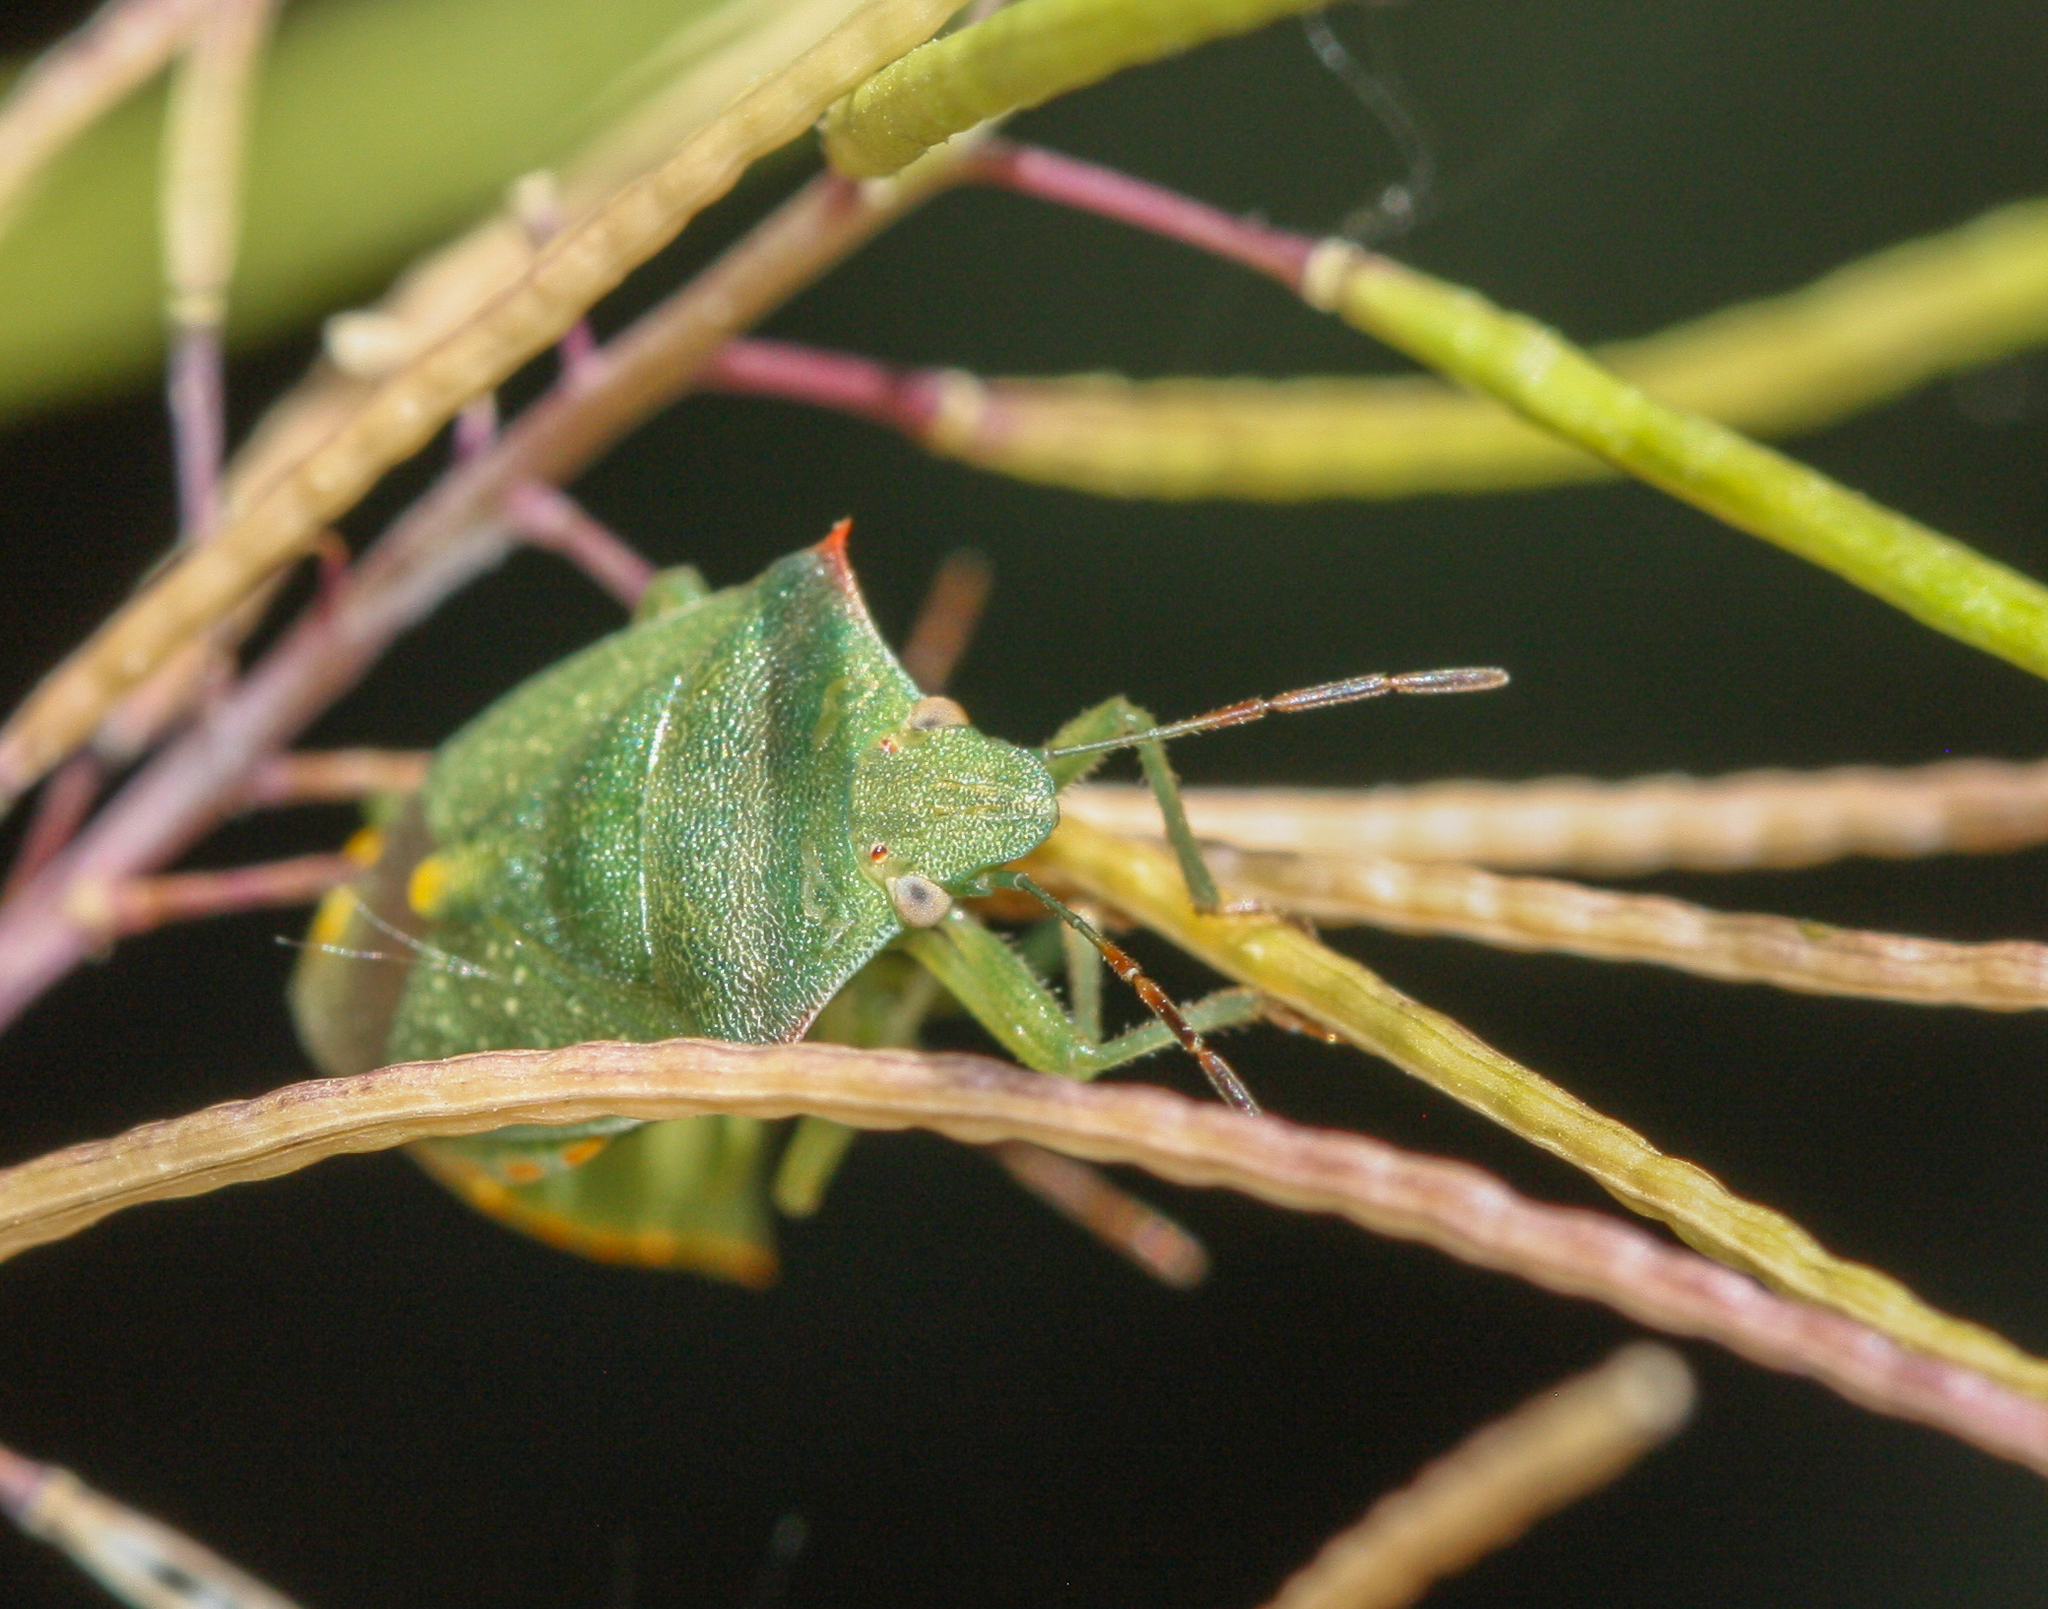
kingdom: Animalia
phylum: Arthropoda
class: Insecta
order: Hemiptera
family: Pentatomidae
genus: Thyanta
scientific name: Thyanta accerra
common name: Stink bug
